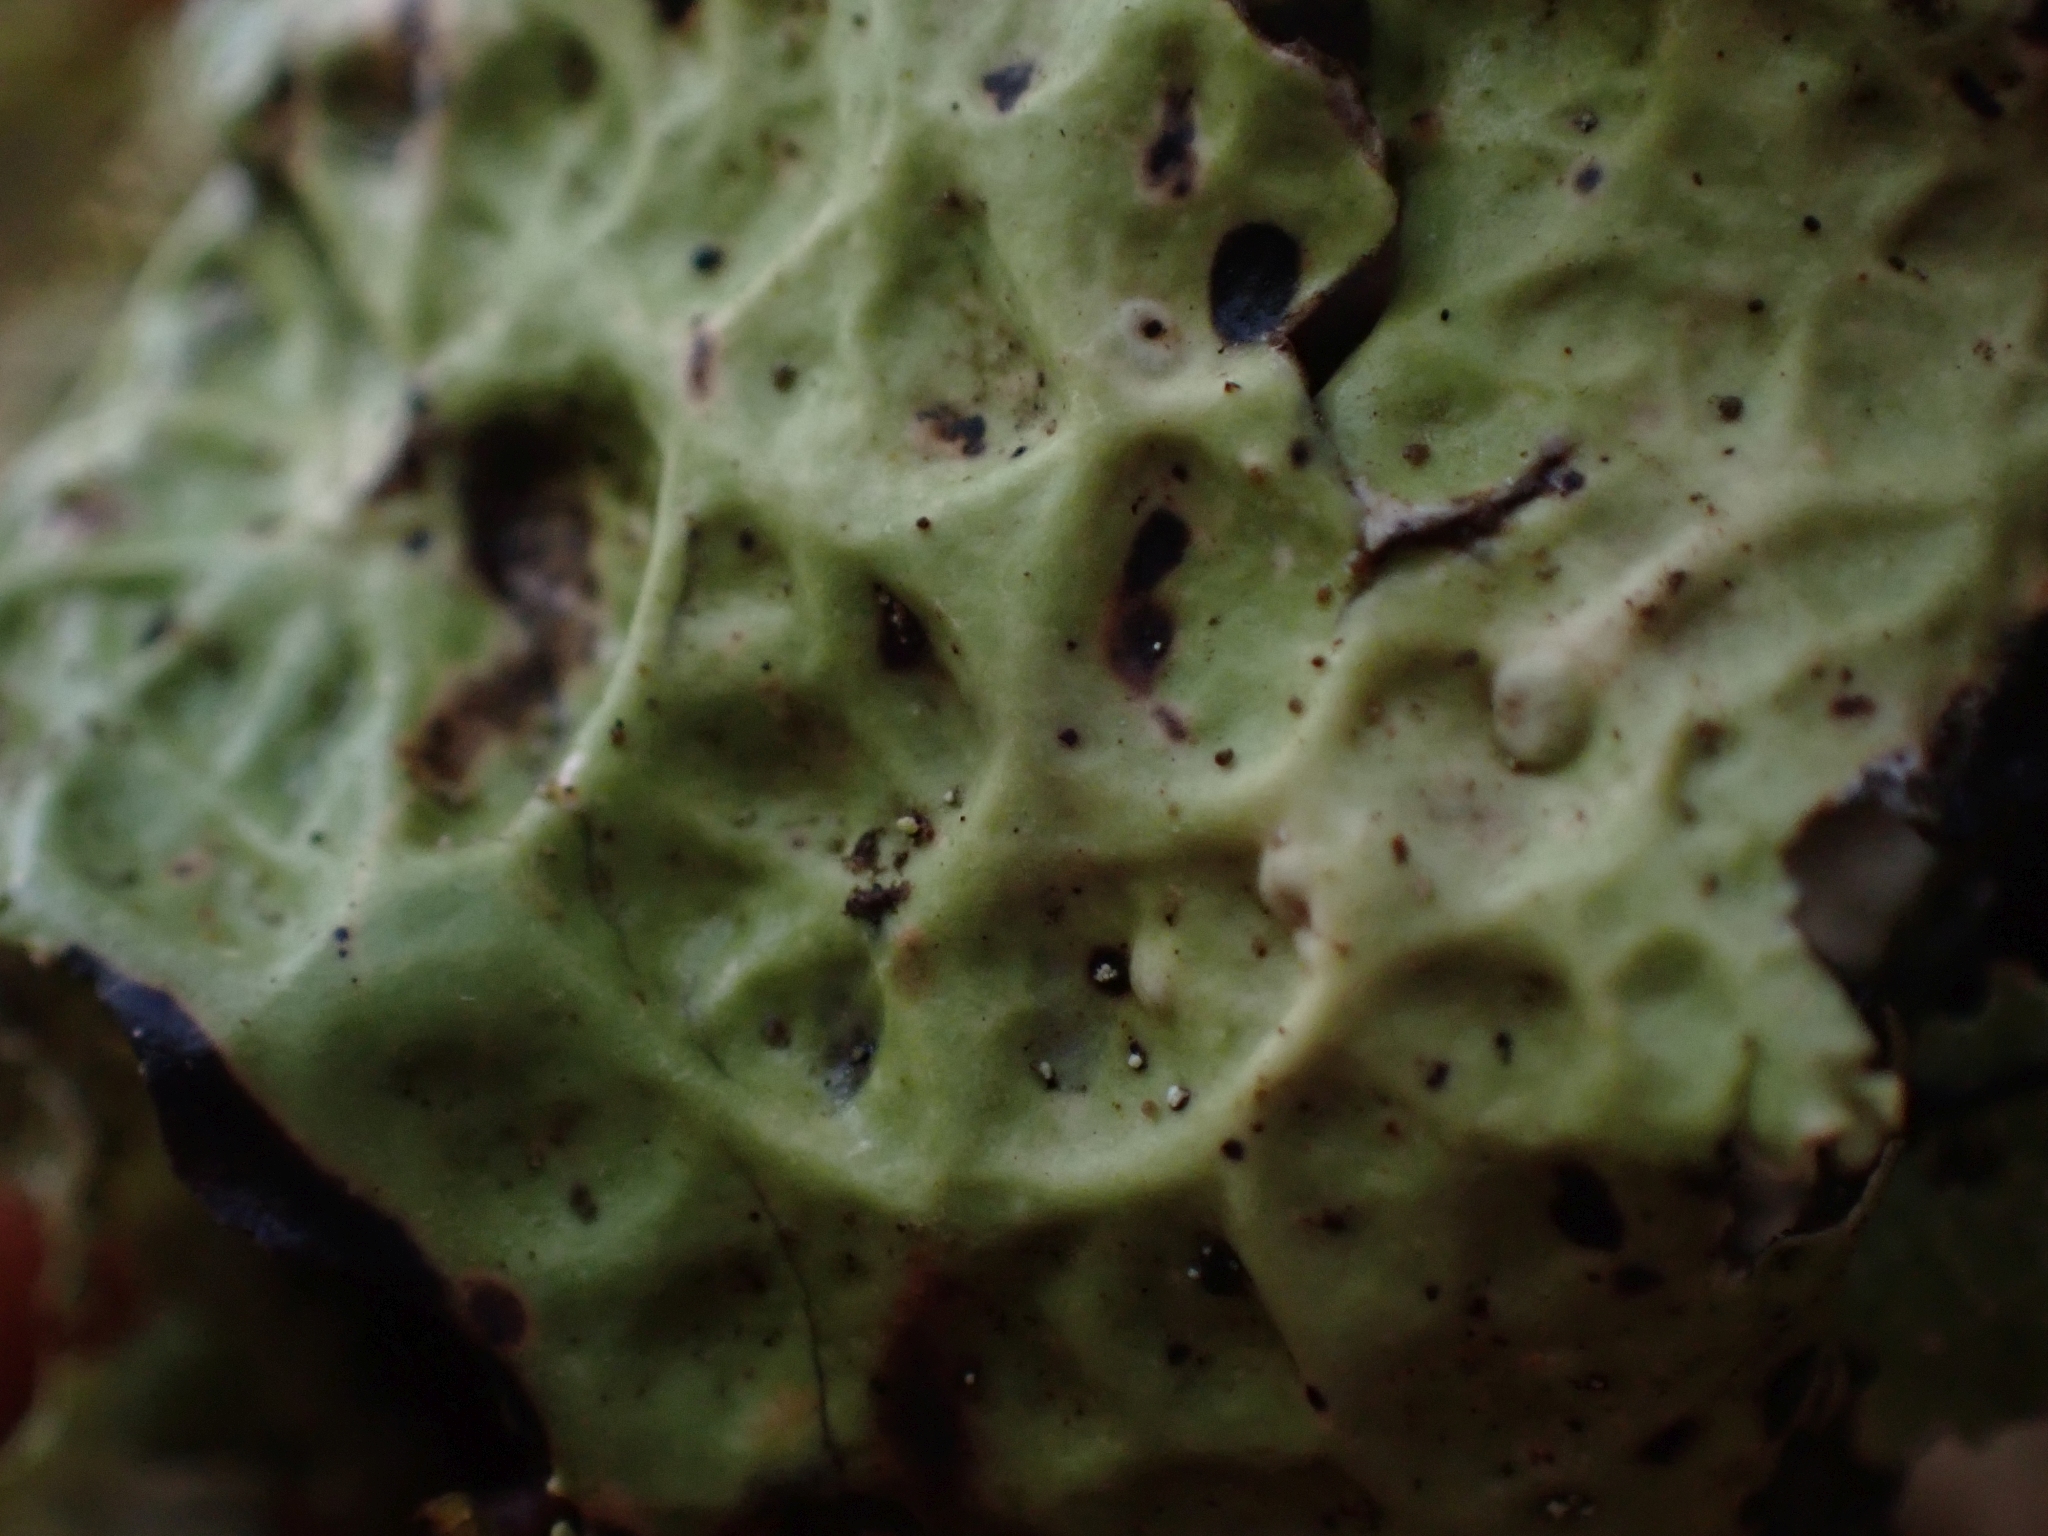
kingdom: Fungi
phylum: Ascomycota
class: Lecanoromycetes
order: Peltigerales
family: Lobariaceae
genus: Lobaria
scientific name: Lobaria oregana
